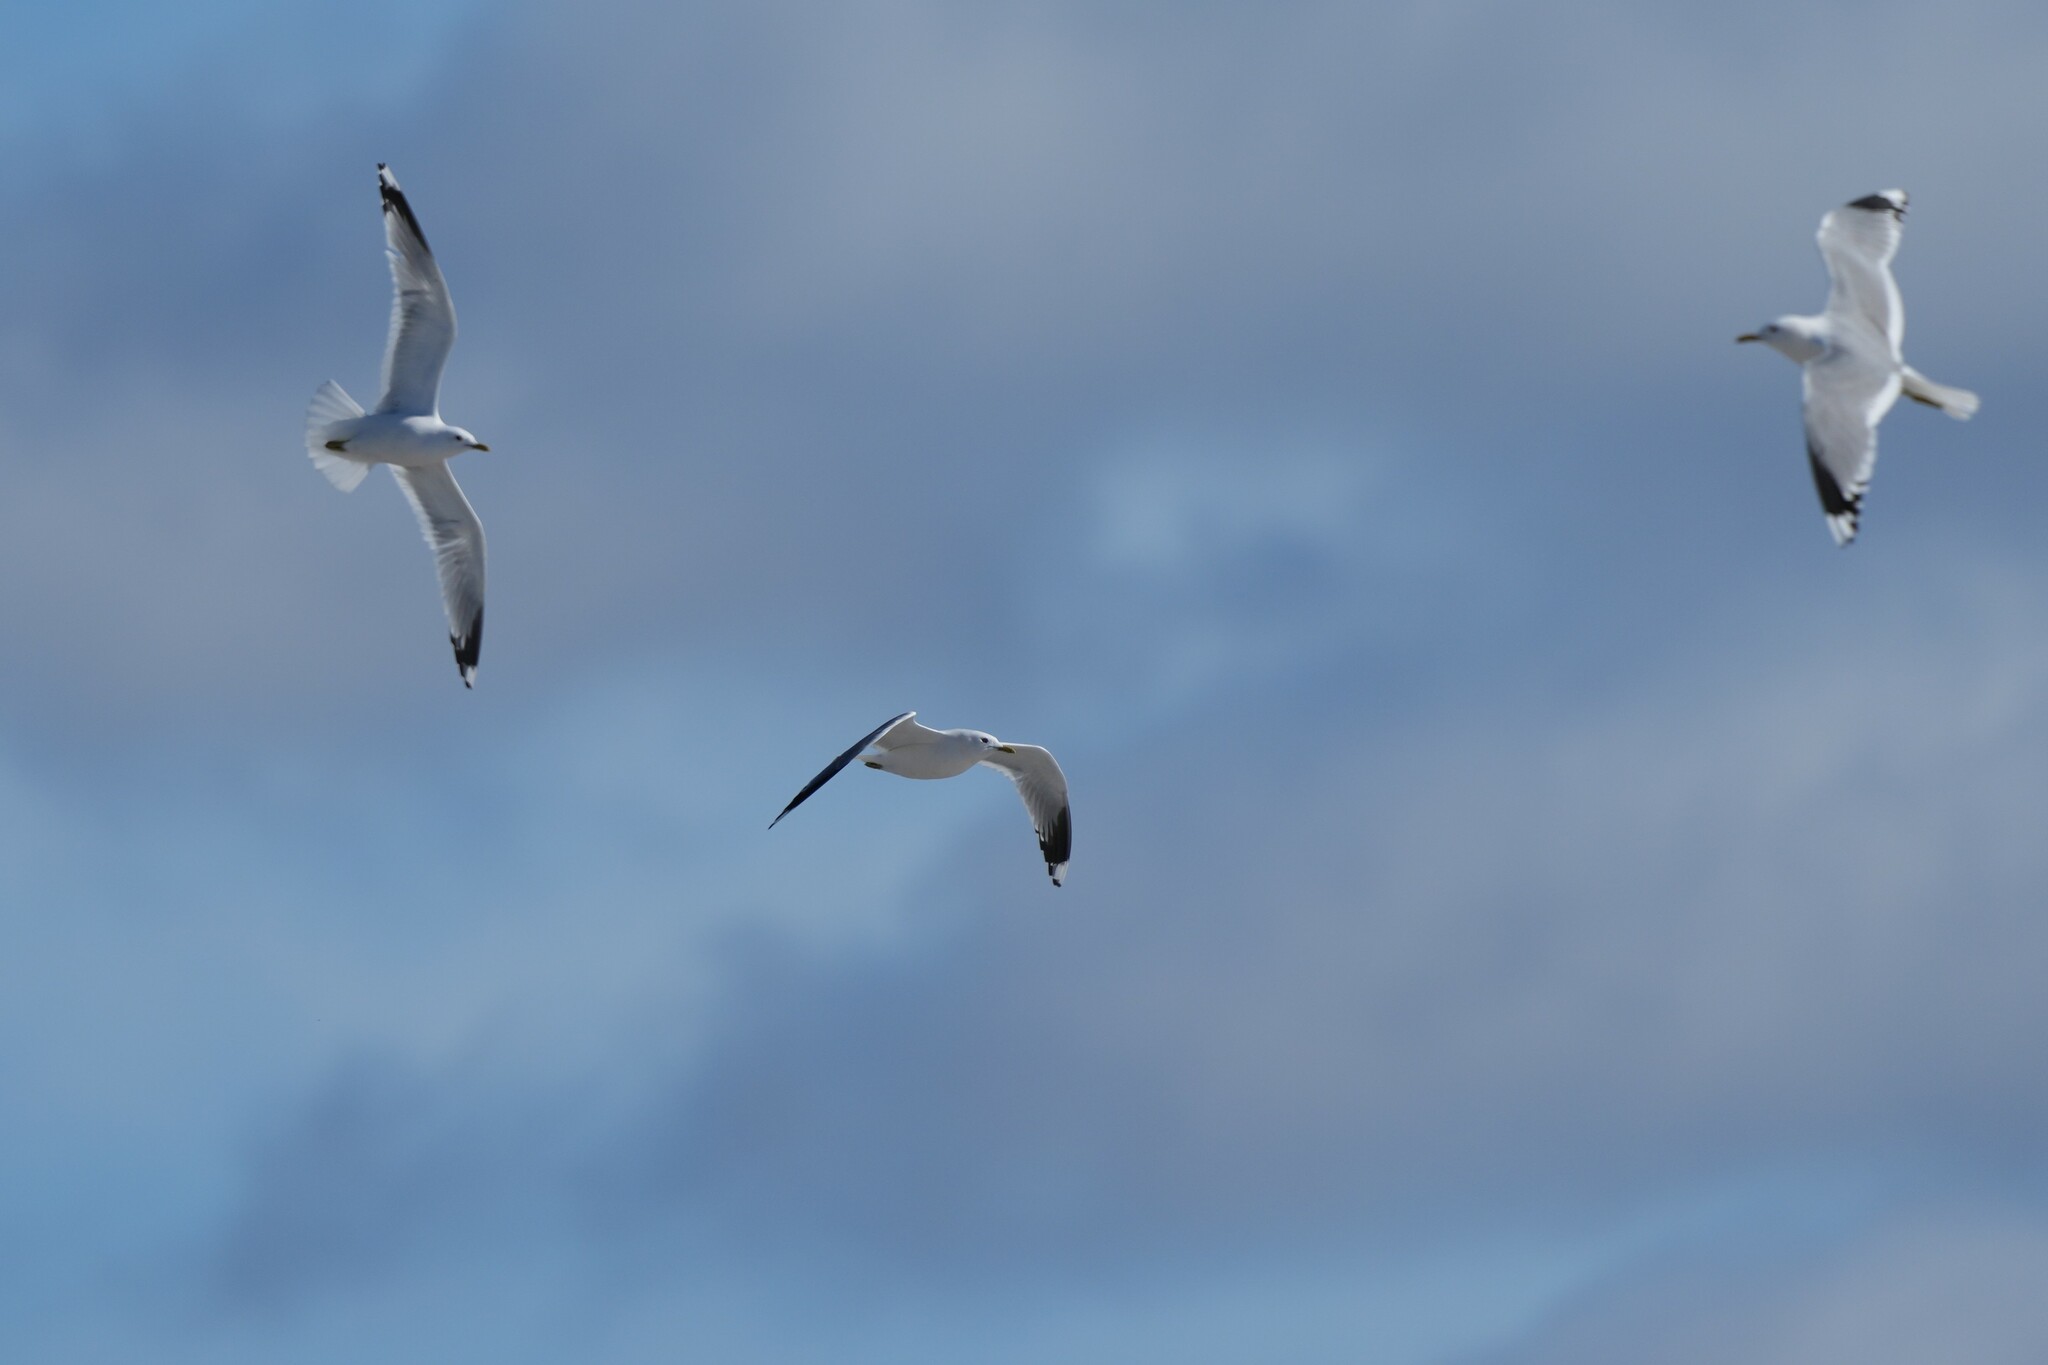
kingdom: Animalia
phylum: Chordata
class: Aves
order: Charadriiformes
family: Laridae
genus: Larus
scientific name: Larus canus
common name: Mew gull
